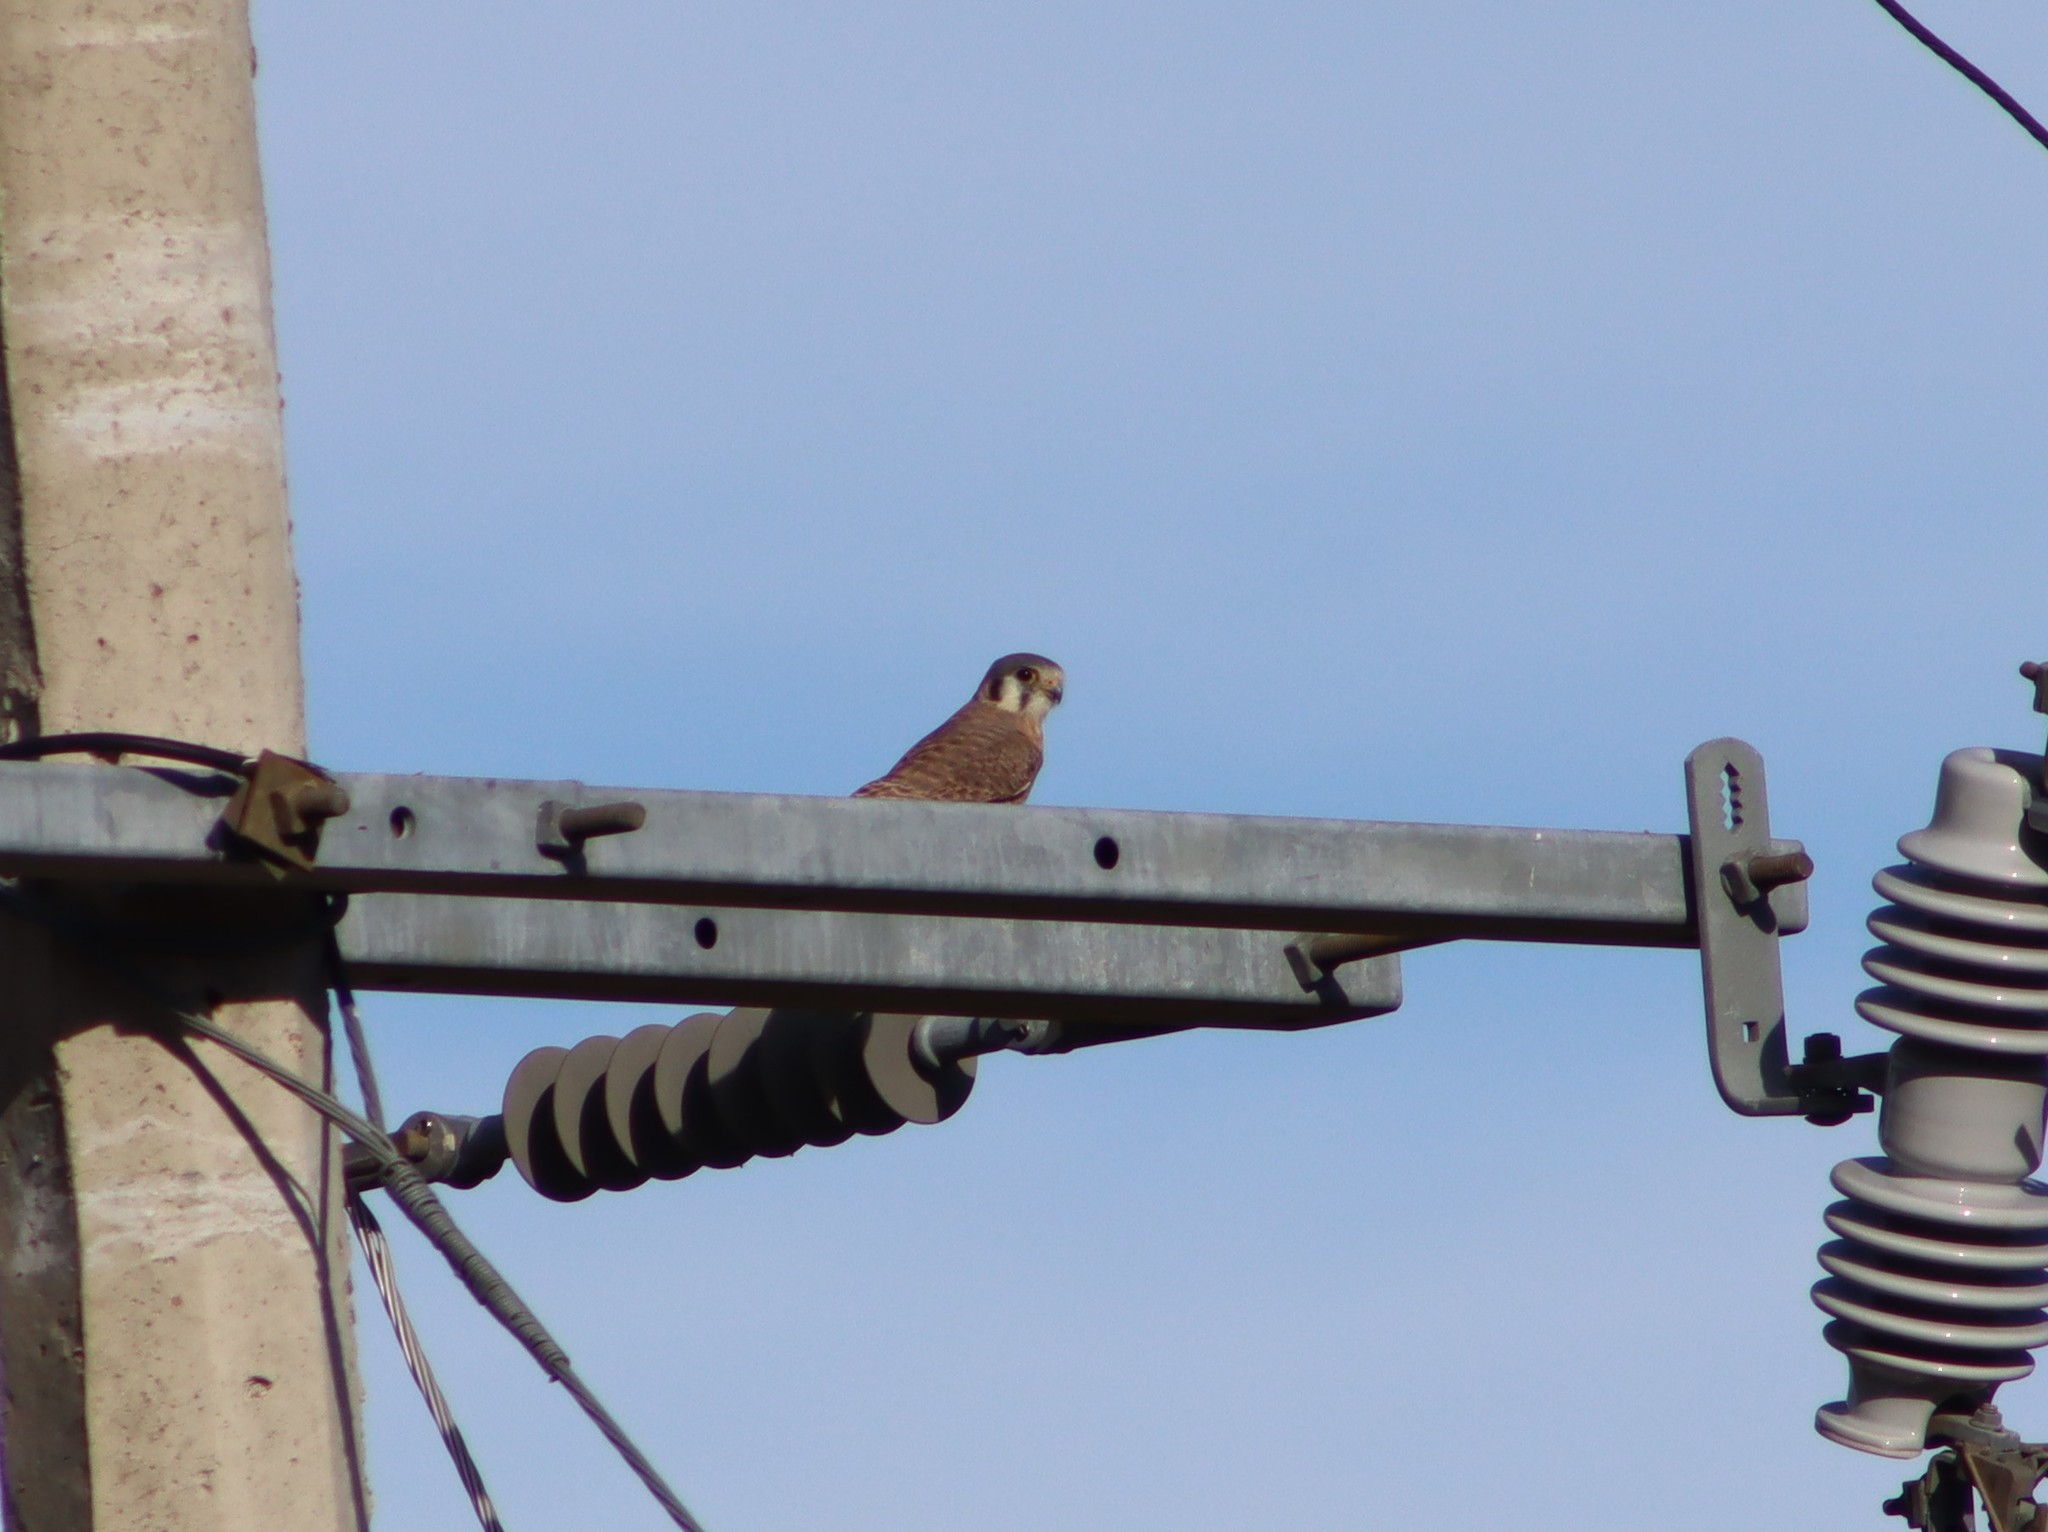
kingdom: Animalia
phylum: Chordata
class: Aves
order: Falconiformes
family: Falconidae
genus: Falco
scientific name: Falco sparverius
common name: American kestrel
